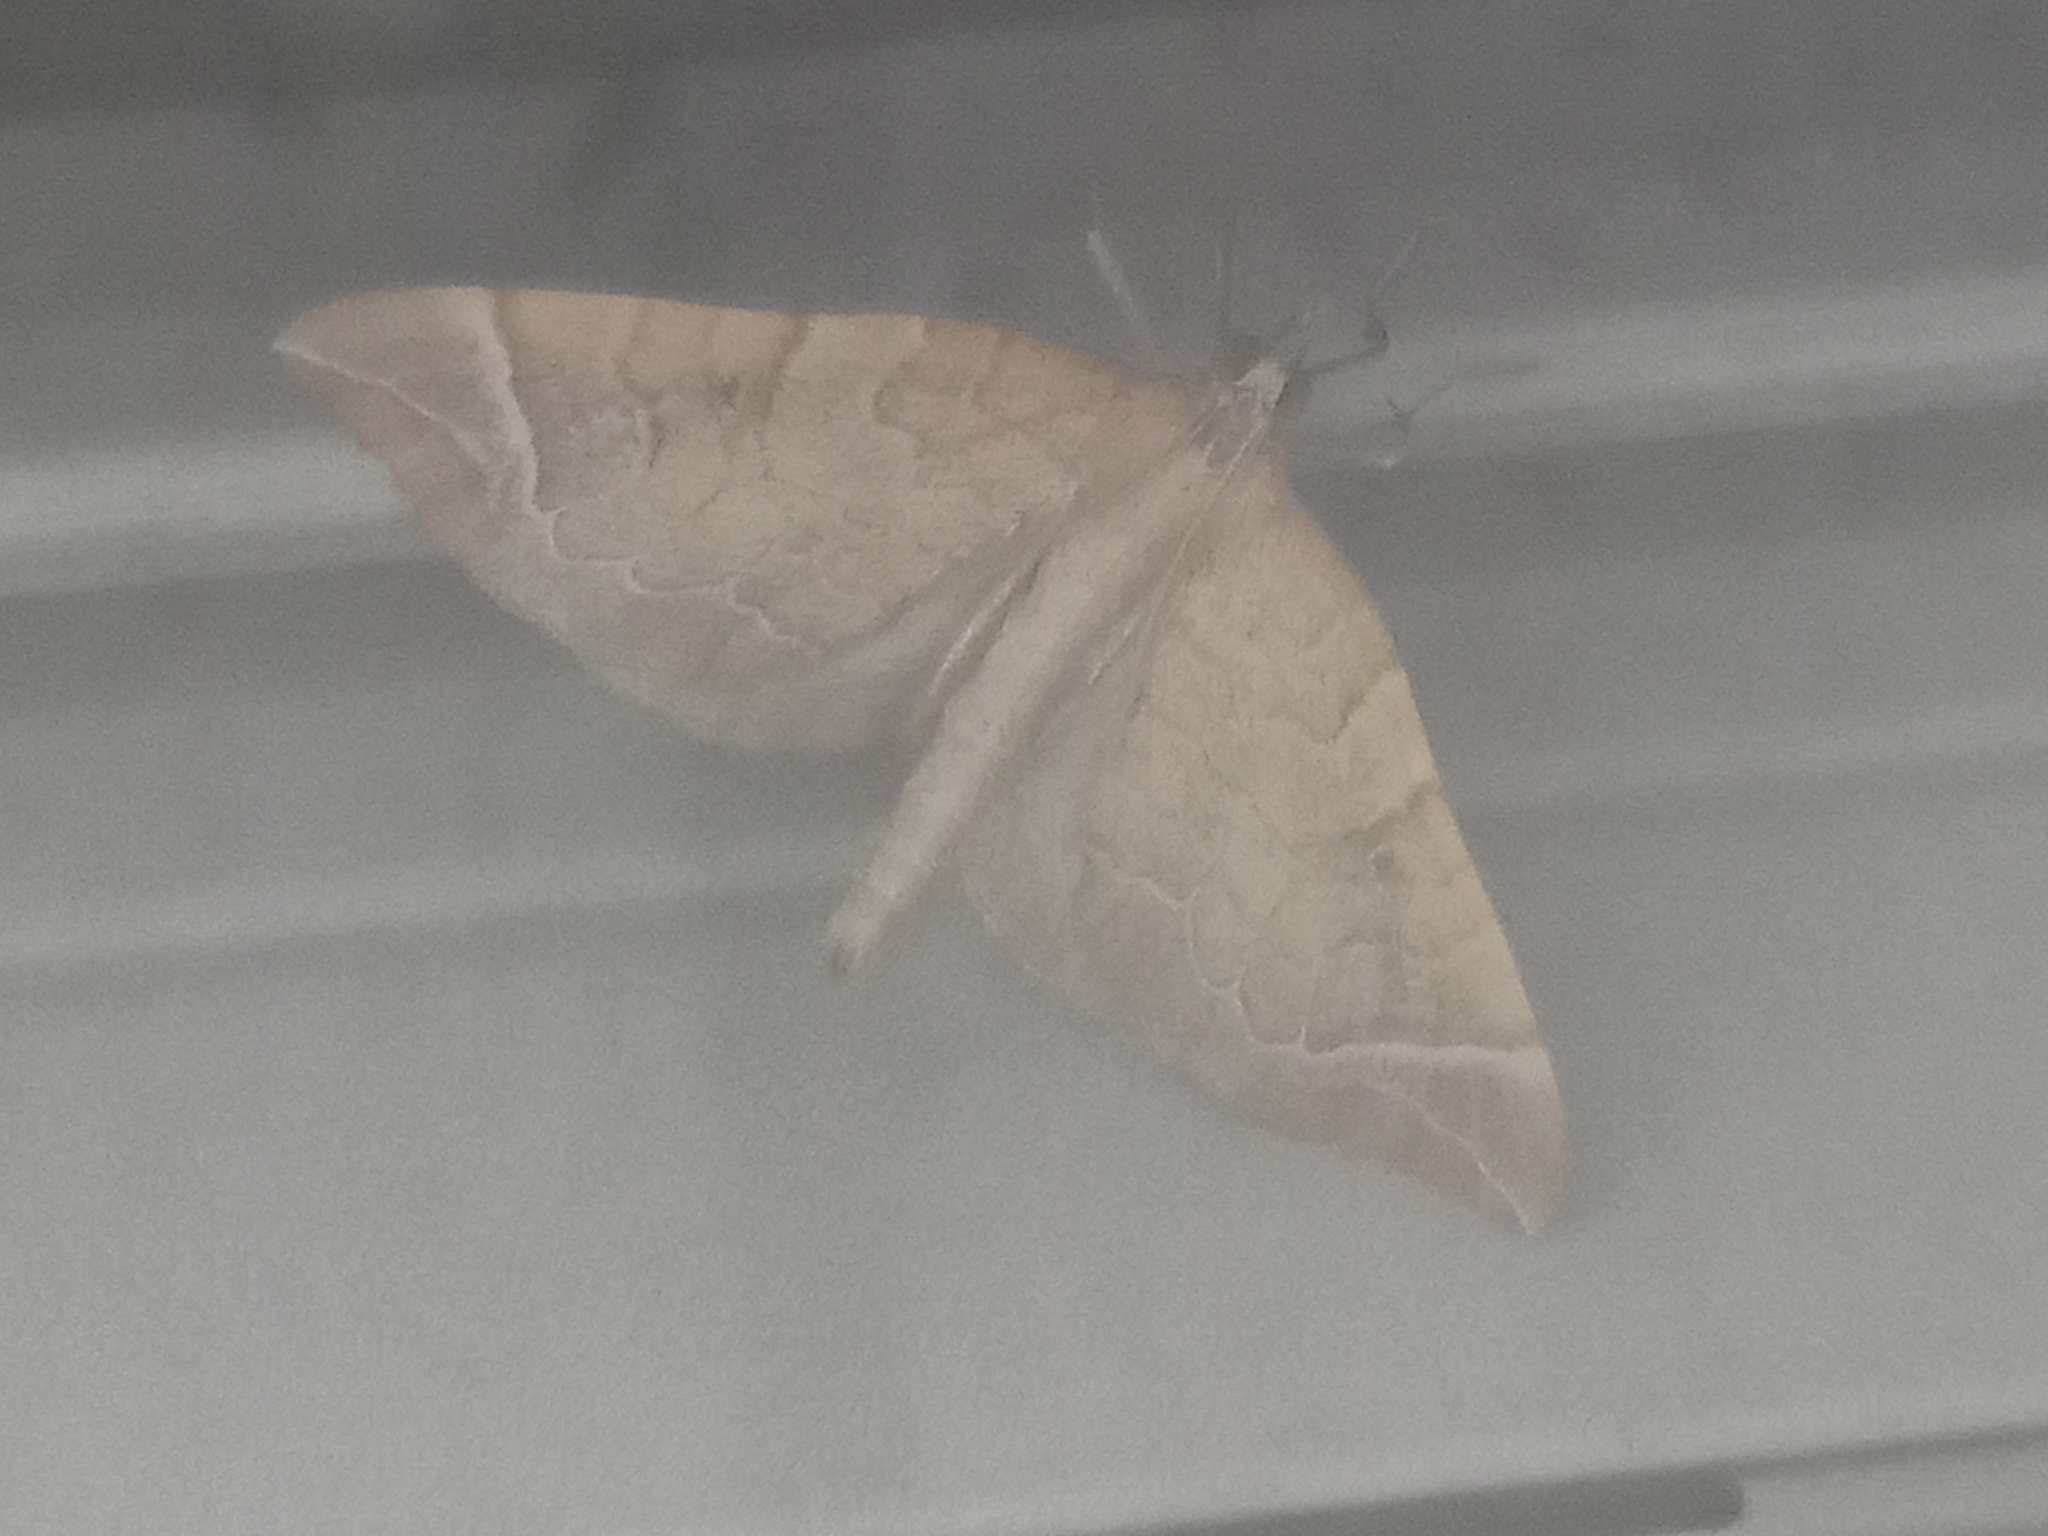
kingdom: Animalia
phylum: Arthropoda
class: Insecta
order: Lepidoptera
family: Geometridae
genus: Eulithis
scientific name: Eulithis testata
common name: Chevron
